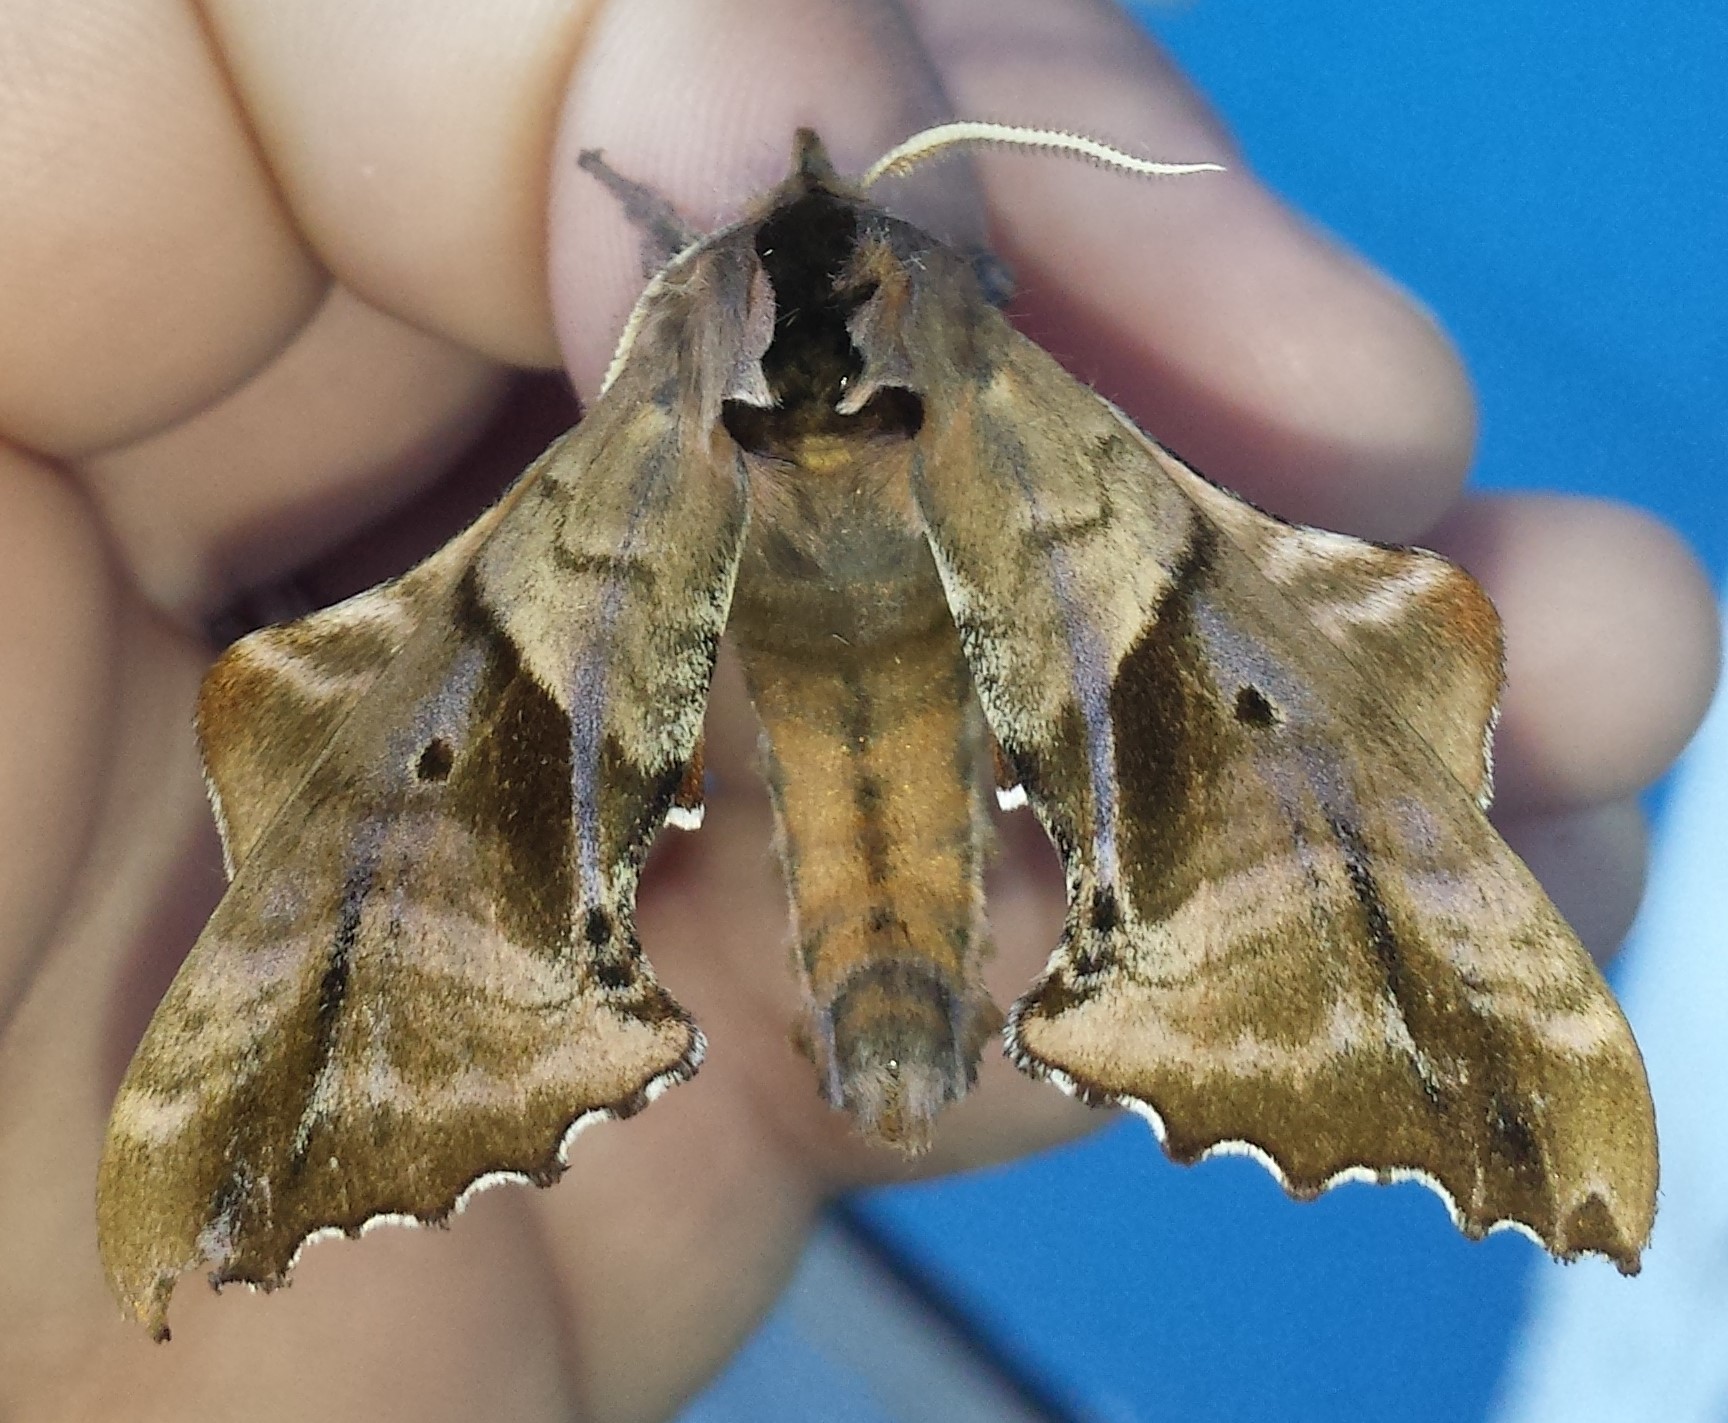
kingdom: Animalia
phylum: Arthropoda
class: Insecta
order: Lepidoptera
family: Sphingidae
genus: Paonias
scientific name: Paonias excaecata
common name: Blind-eyed sphinx
